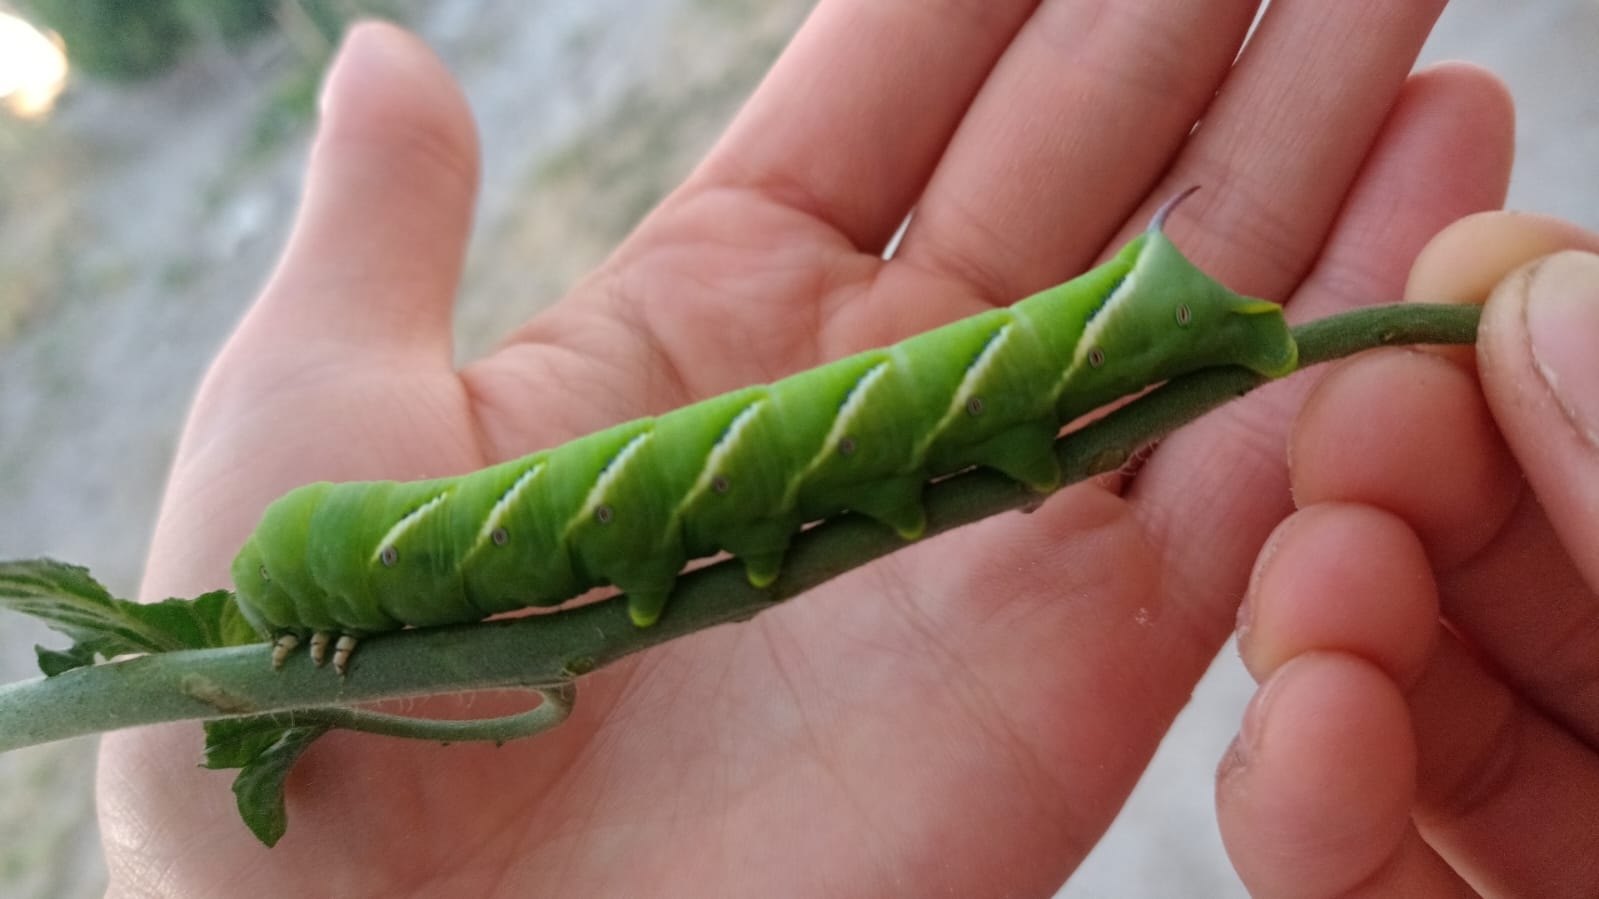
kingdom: Animalia
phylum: Arthropoda
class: Insecta
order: Lepidoptera
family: Sphingidae
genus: Manduca
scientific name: Manduca afflicta
